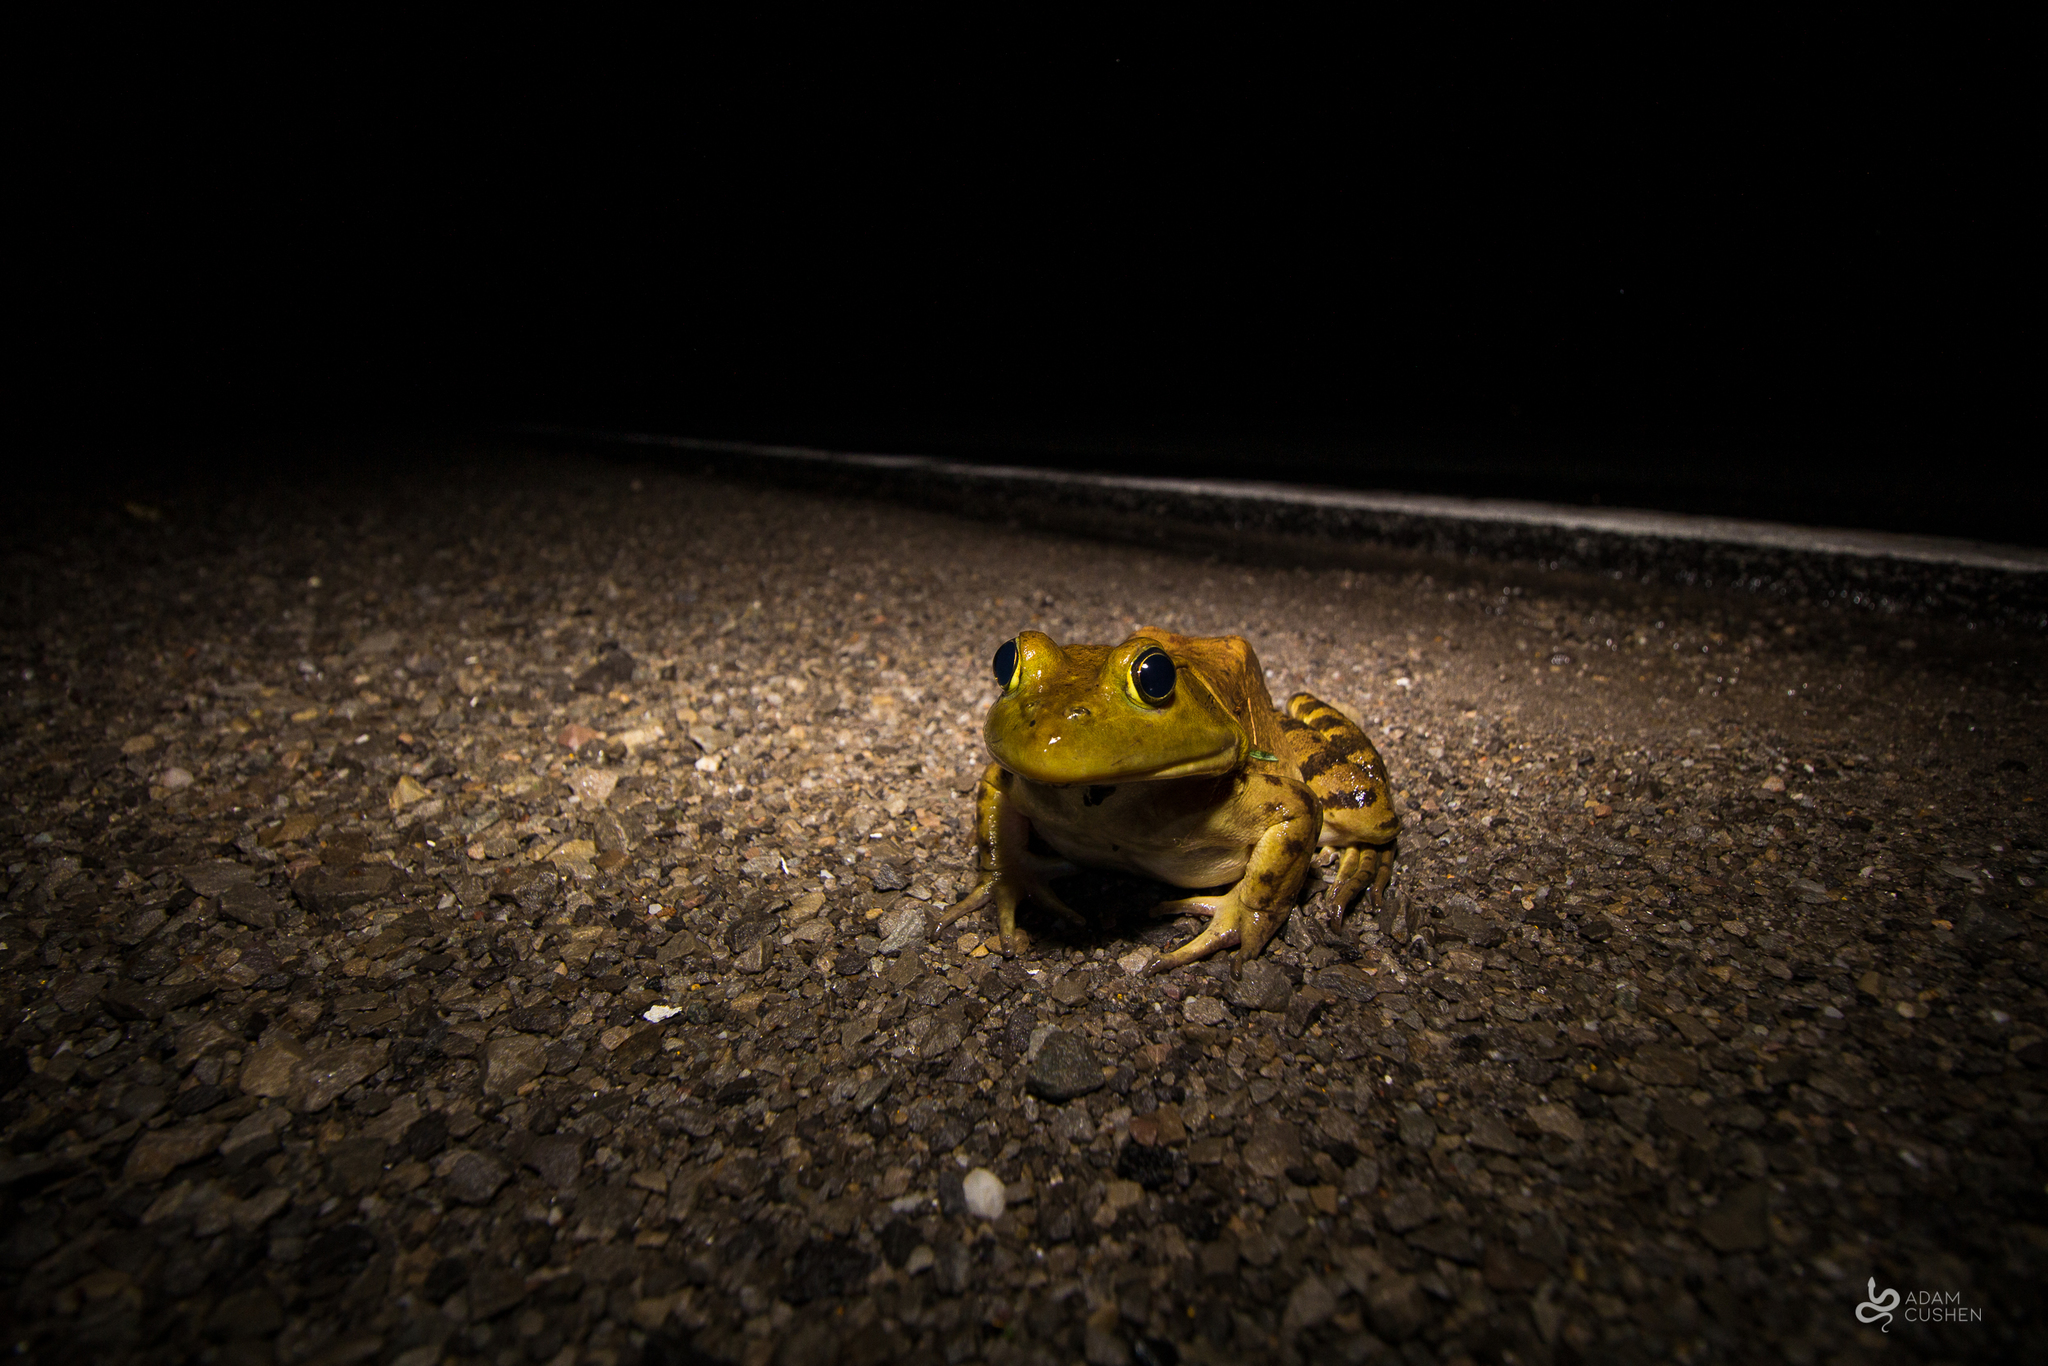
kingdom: Animalia
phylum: Chordata
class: Amphibia
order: Anura
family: Ranidae
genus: Lithobates
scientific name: Lithobates catesbeianus
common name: American bullfrog
